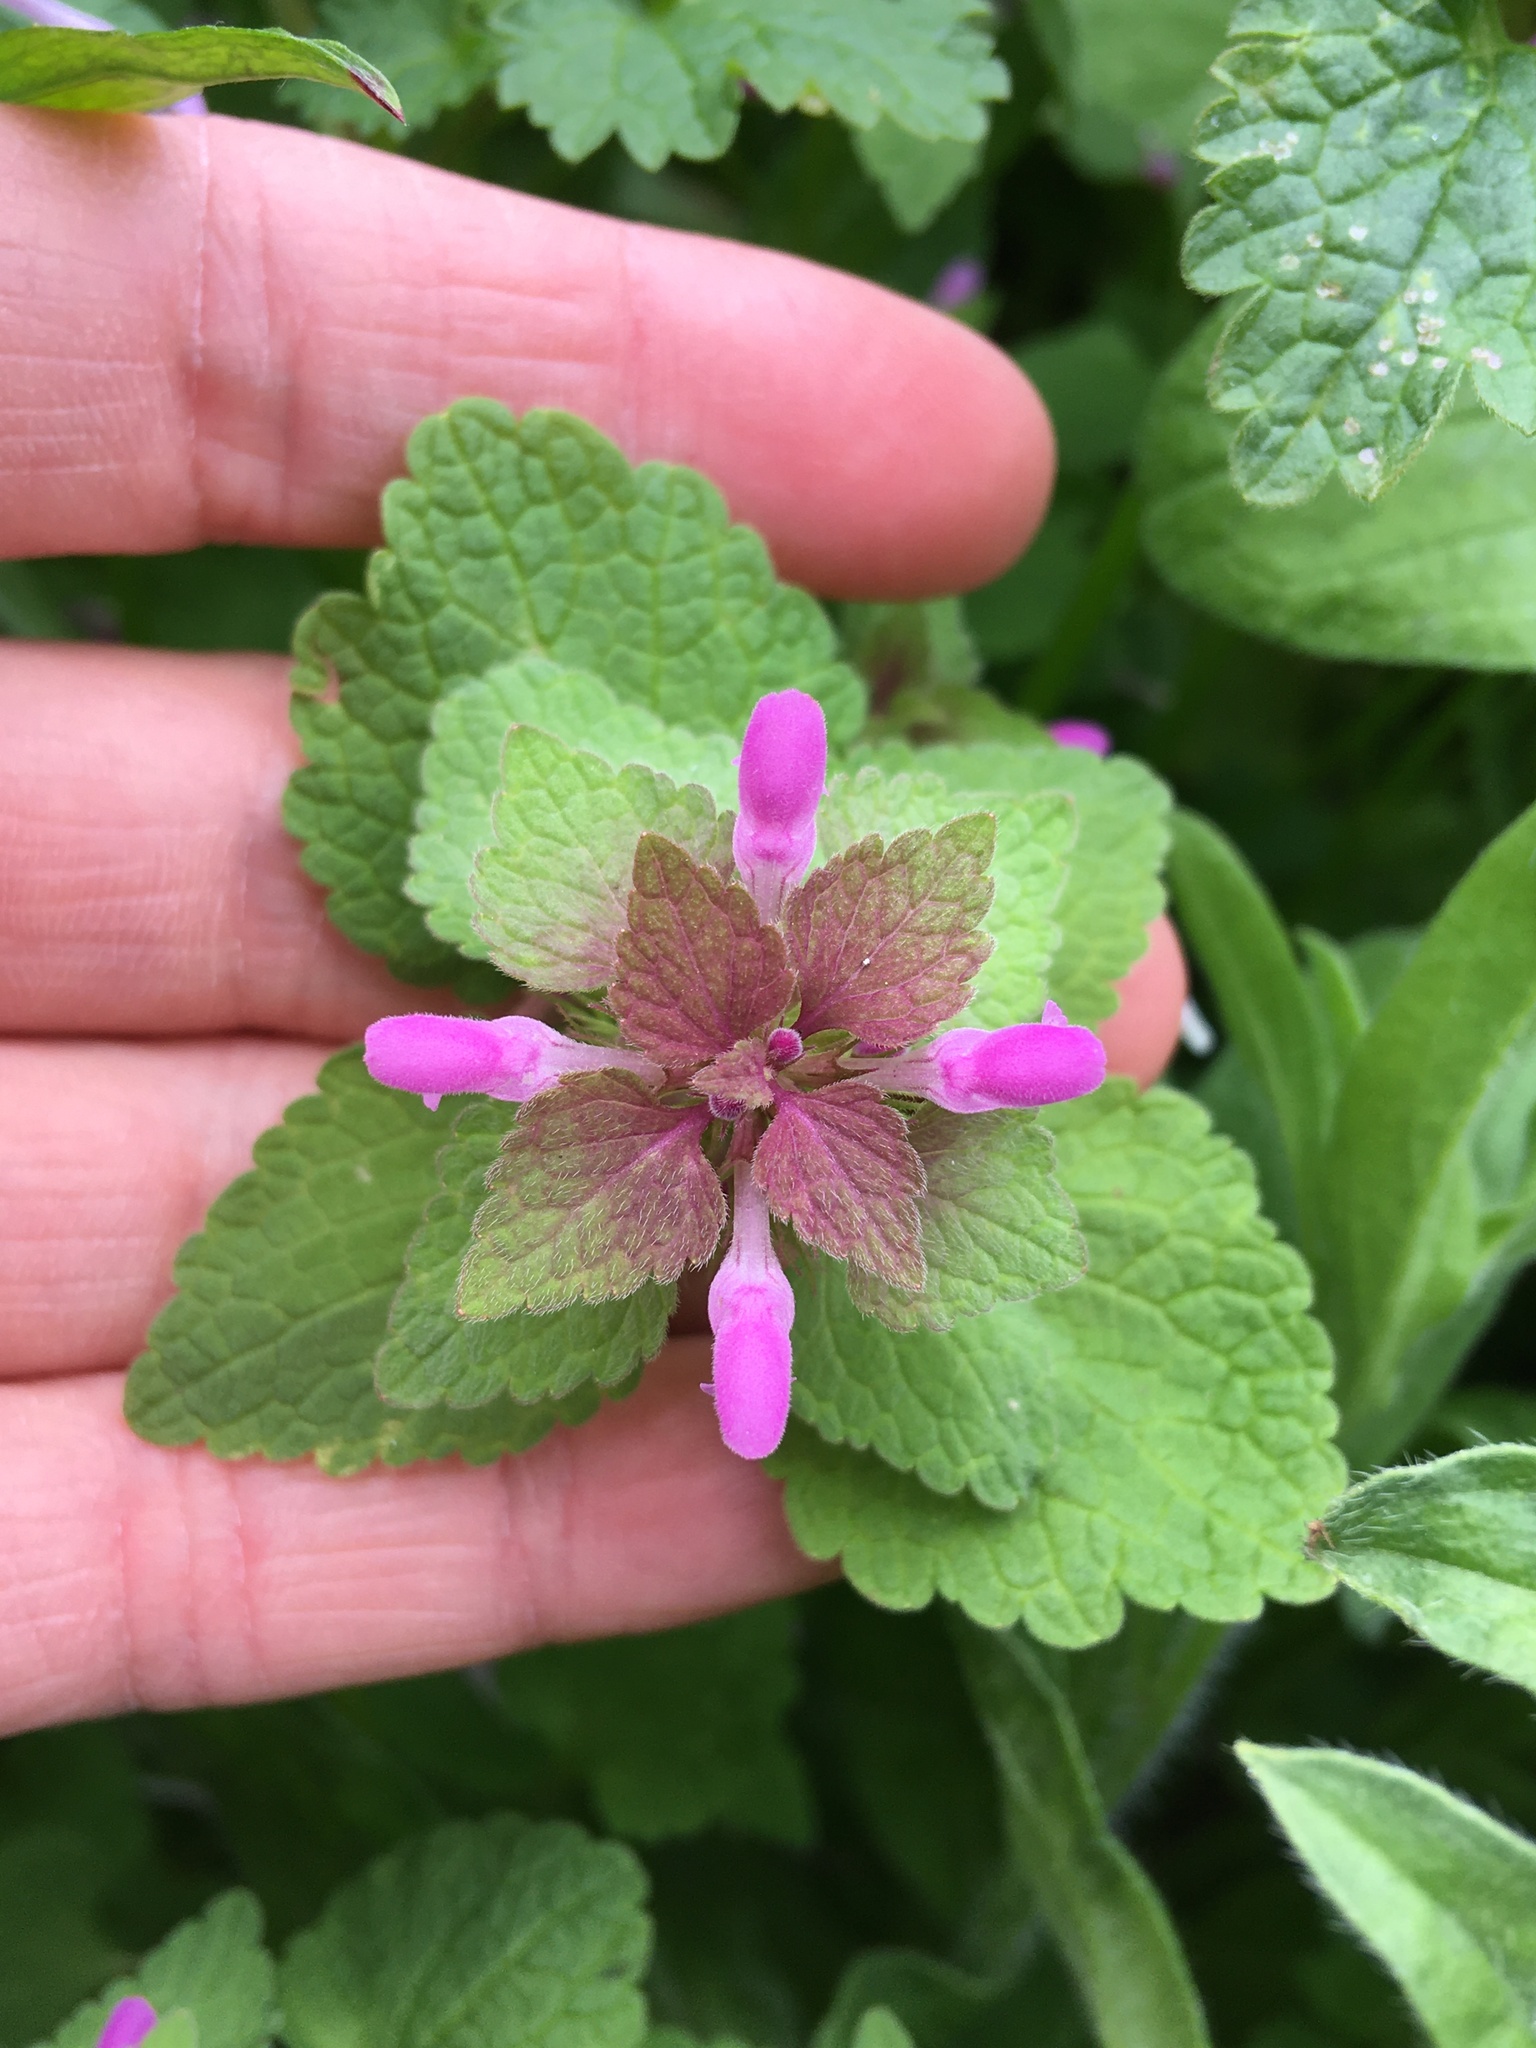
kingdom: Plantae
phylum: Tracheophyta
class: Magnoliopsida
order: Lamiales
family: Lamiaceae
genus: Lamium
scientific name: Lamium purpureum
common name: Red dead-nettle
